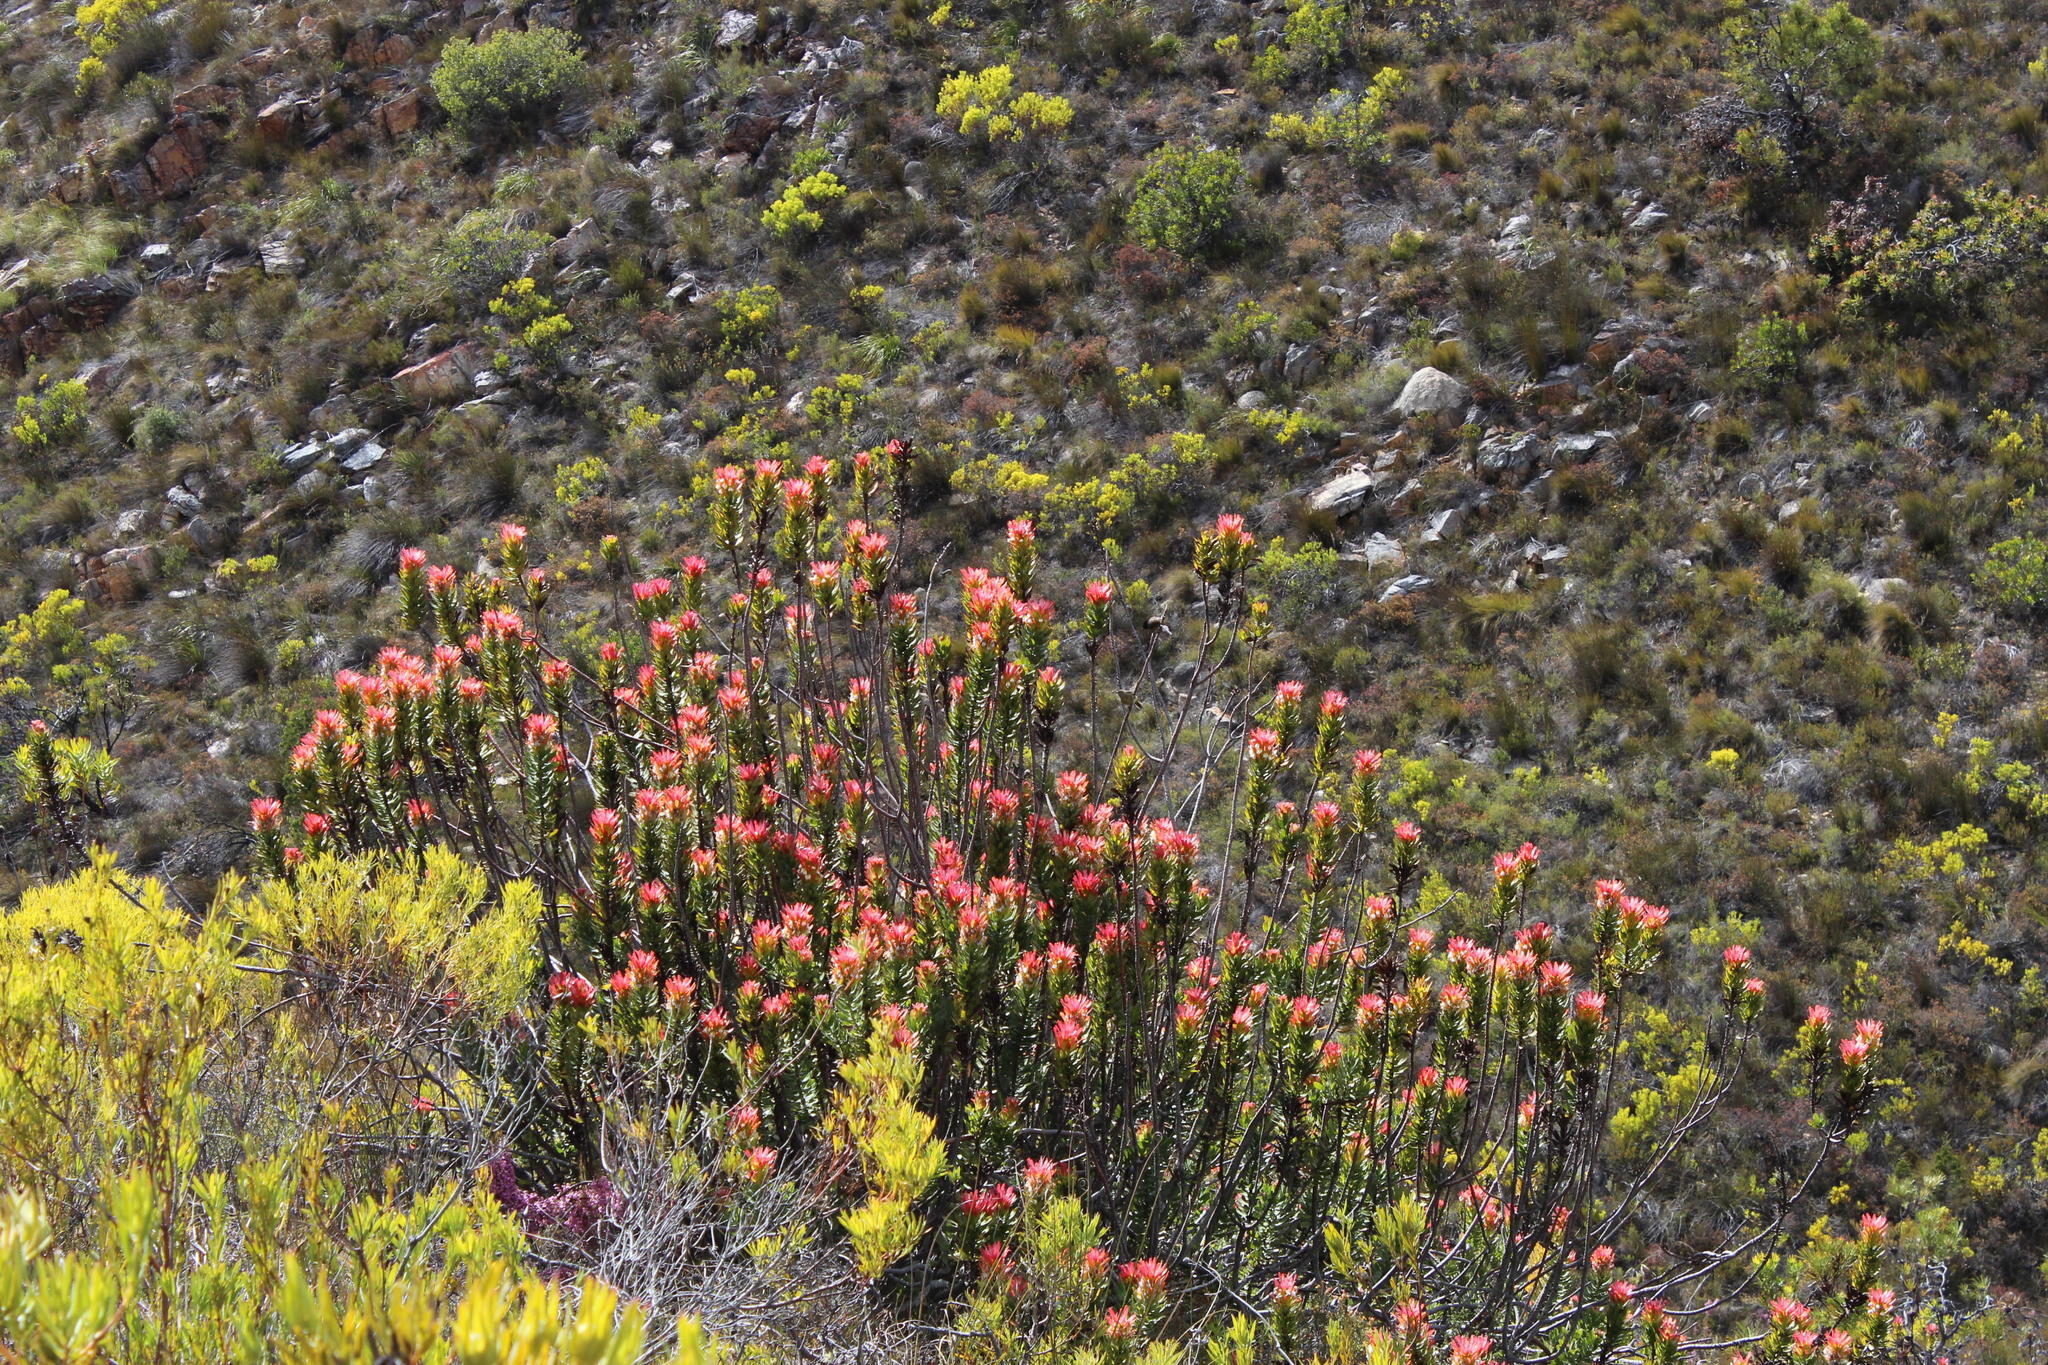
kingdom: Plantae
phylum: Tracheophyta
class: Magnoliopsida
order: Proteales
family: Proteaceae
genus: Mimetes
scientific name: Mimetes cucullatus
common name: Common pagoda
